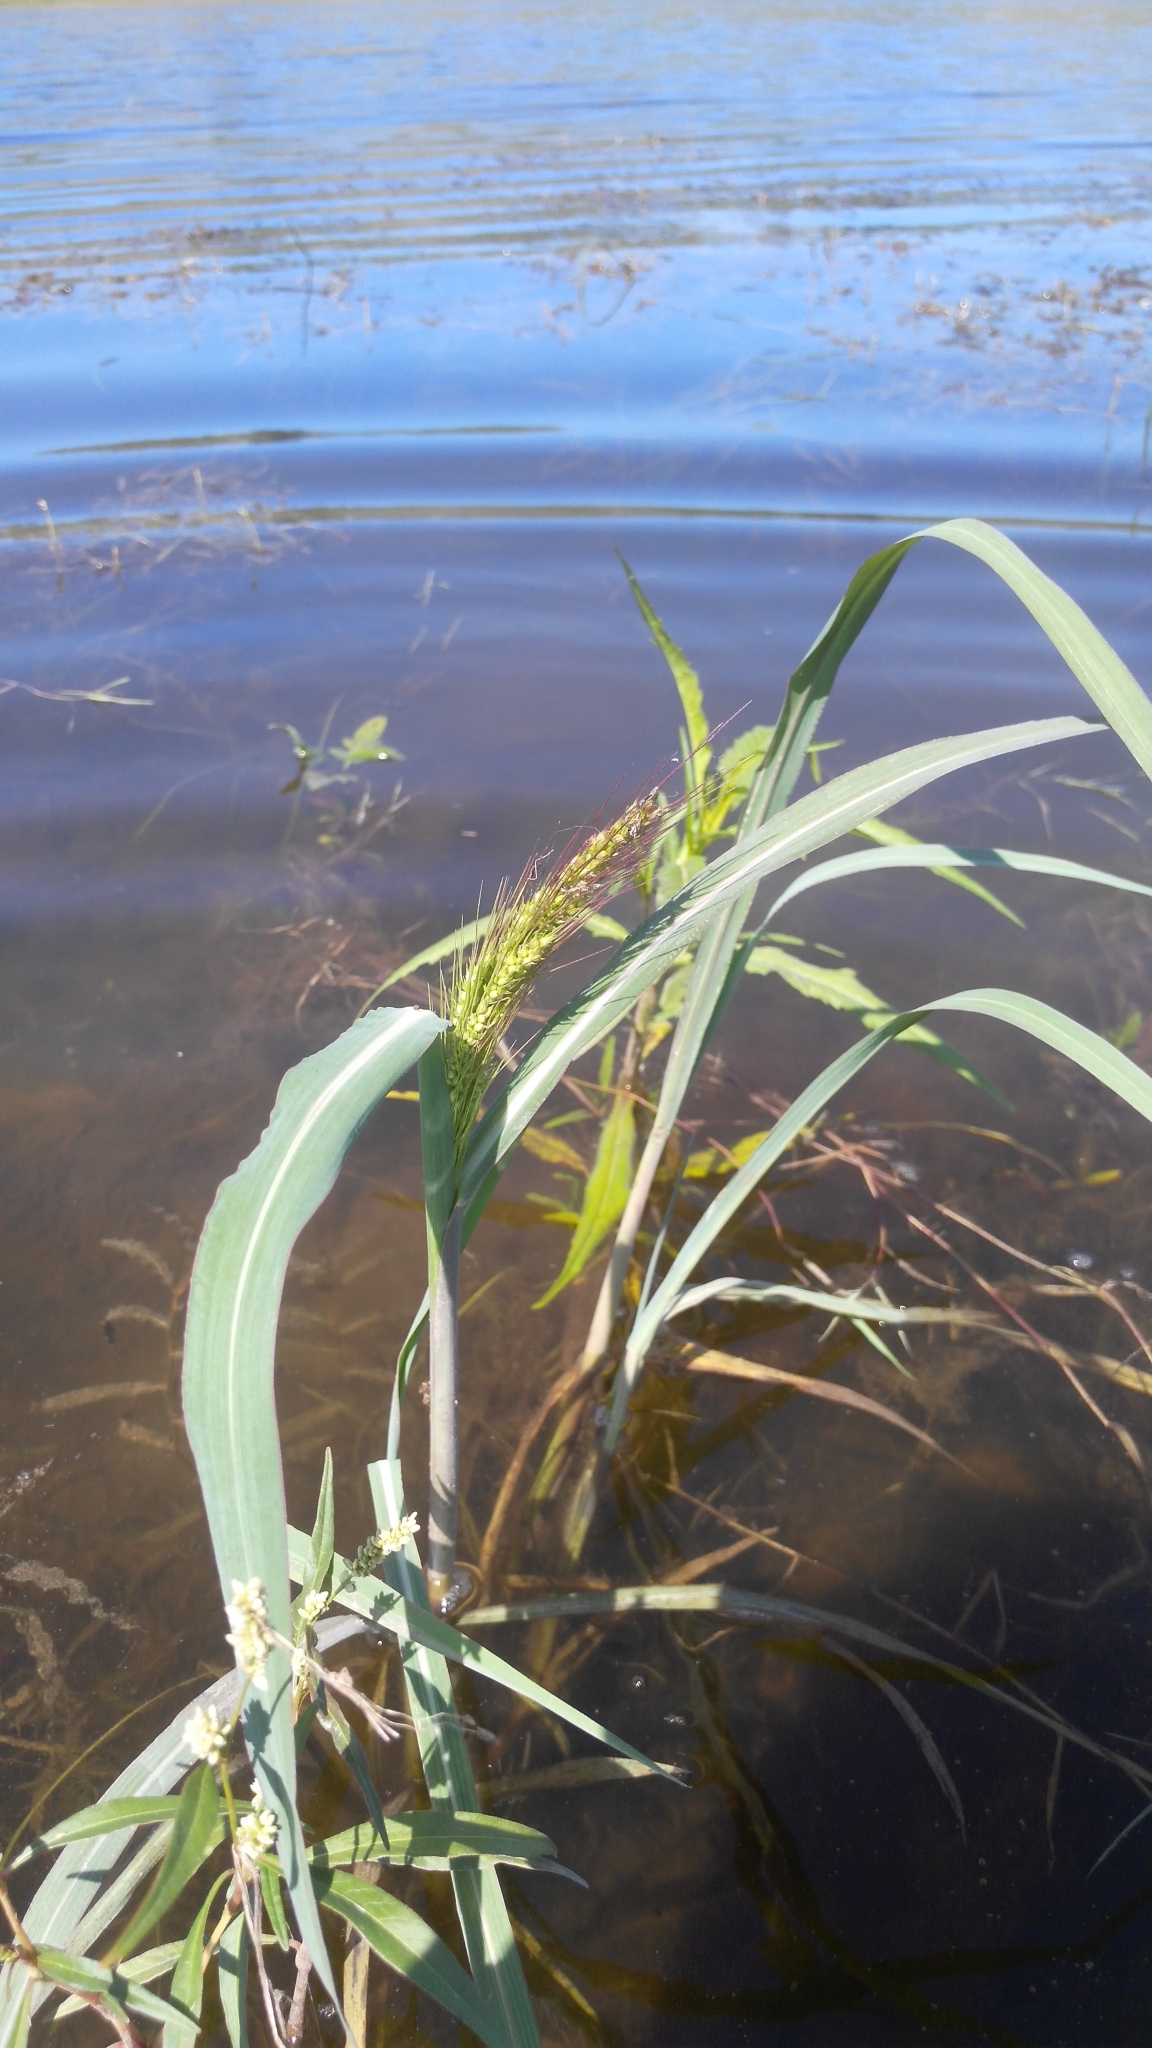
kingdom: Plantae
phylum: Tracheophyta
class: Liliopsida
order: Poales
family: Poaceae
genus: Echinochloa
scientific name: Echinochloa crus-galli
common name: Cockspur
